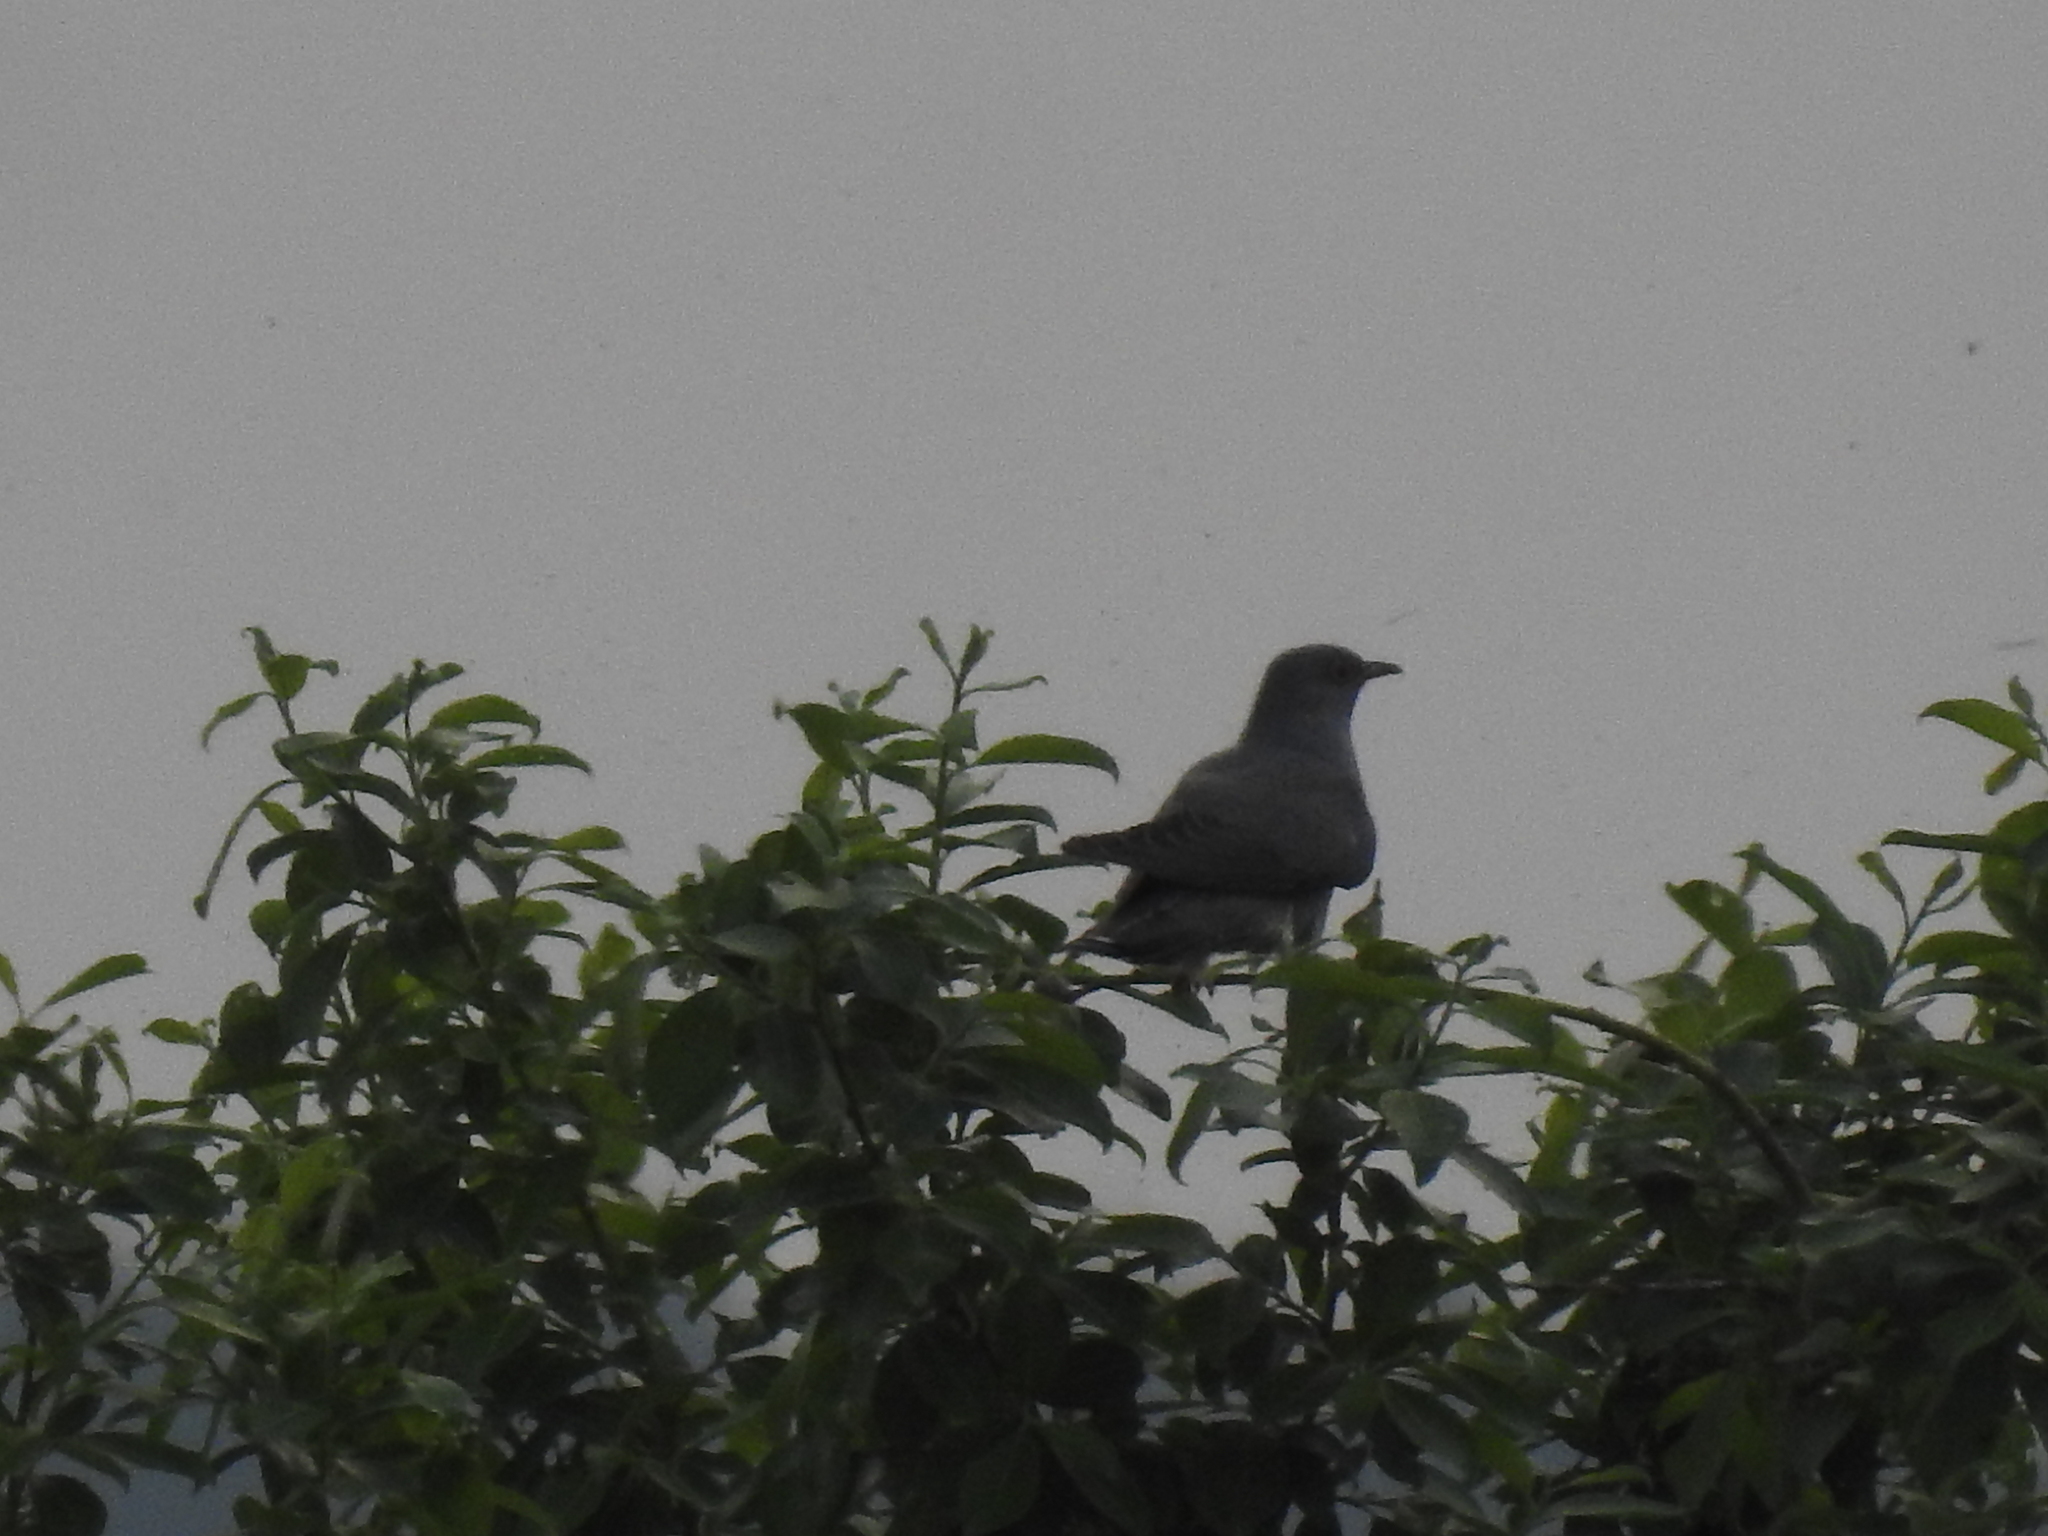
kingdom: Animalia
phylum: Chordata
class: Aves
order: Cuculiformes
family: Cuculidae
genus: Cuculus
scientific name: Cuculus canorus
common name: Common cuckoo
